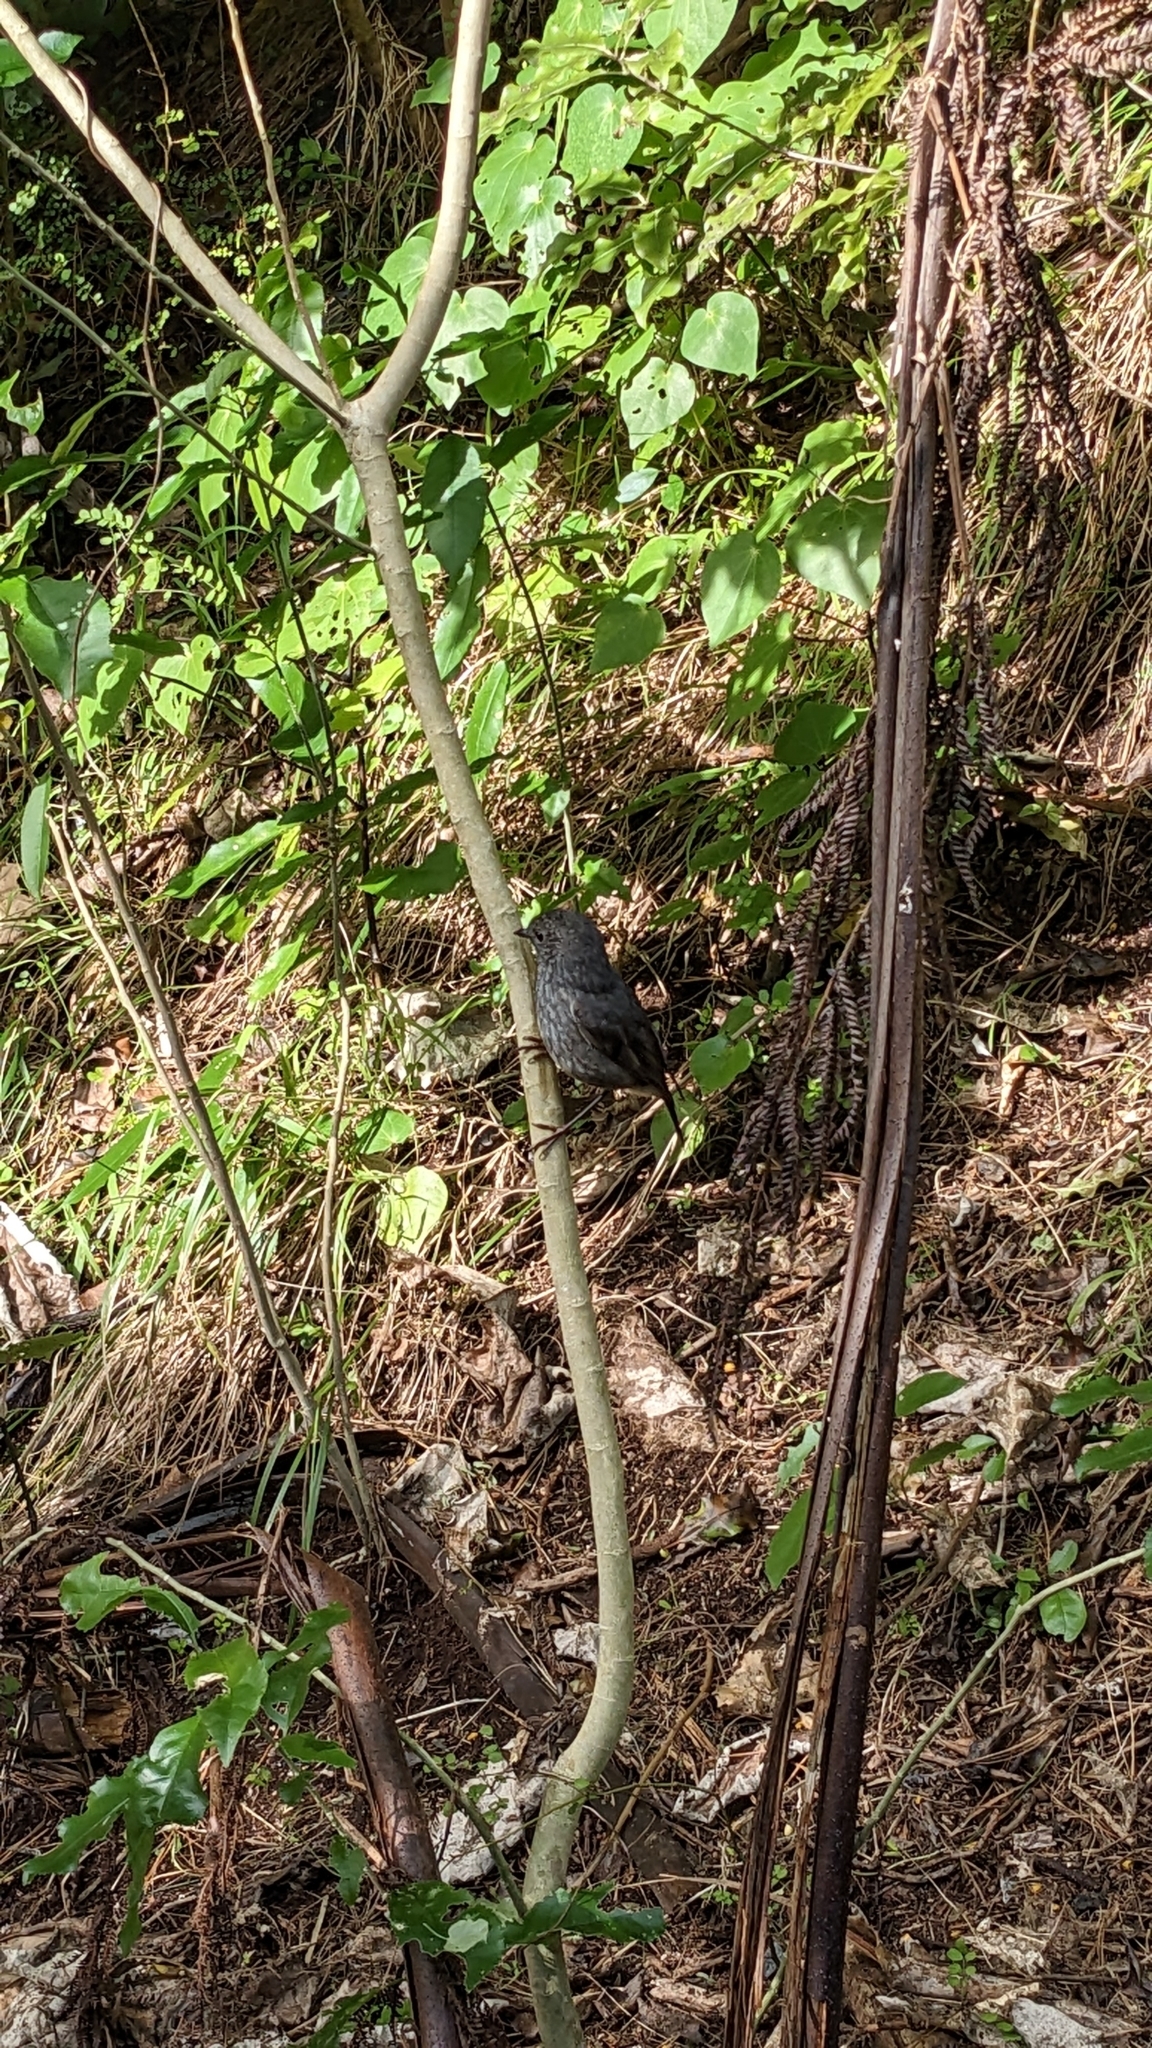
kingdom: Animalia
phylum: Chordata
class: Aves
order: Passeriformes
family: Petroicidae
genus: Petroica
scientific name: Petroica australis
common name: New zealand robin
